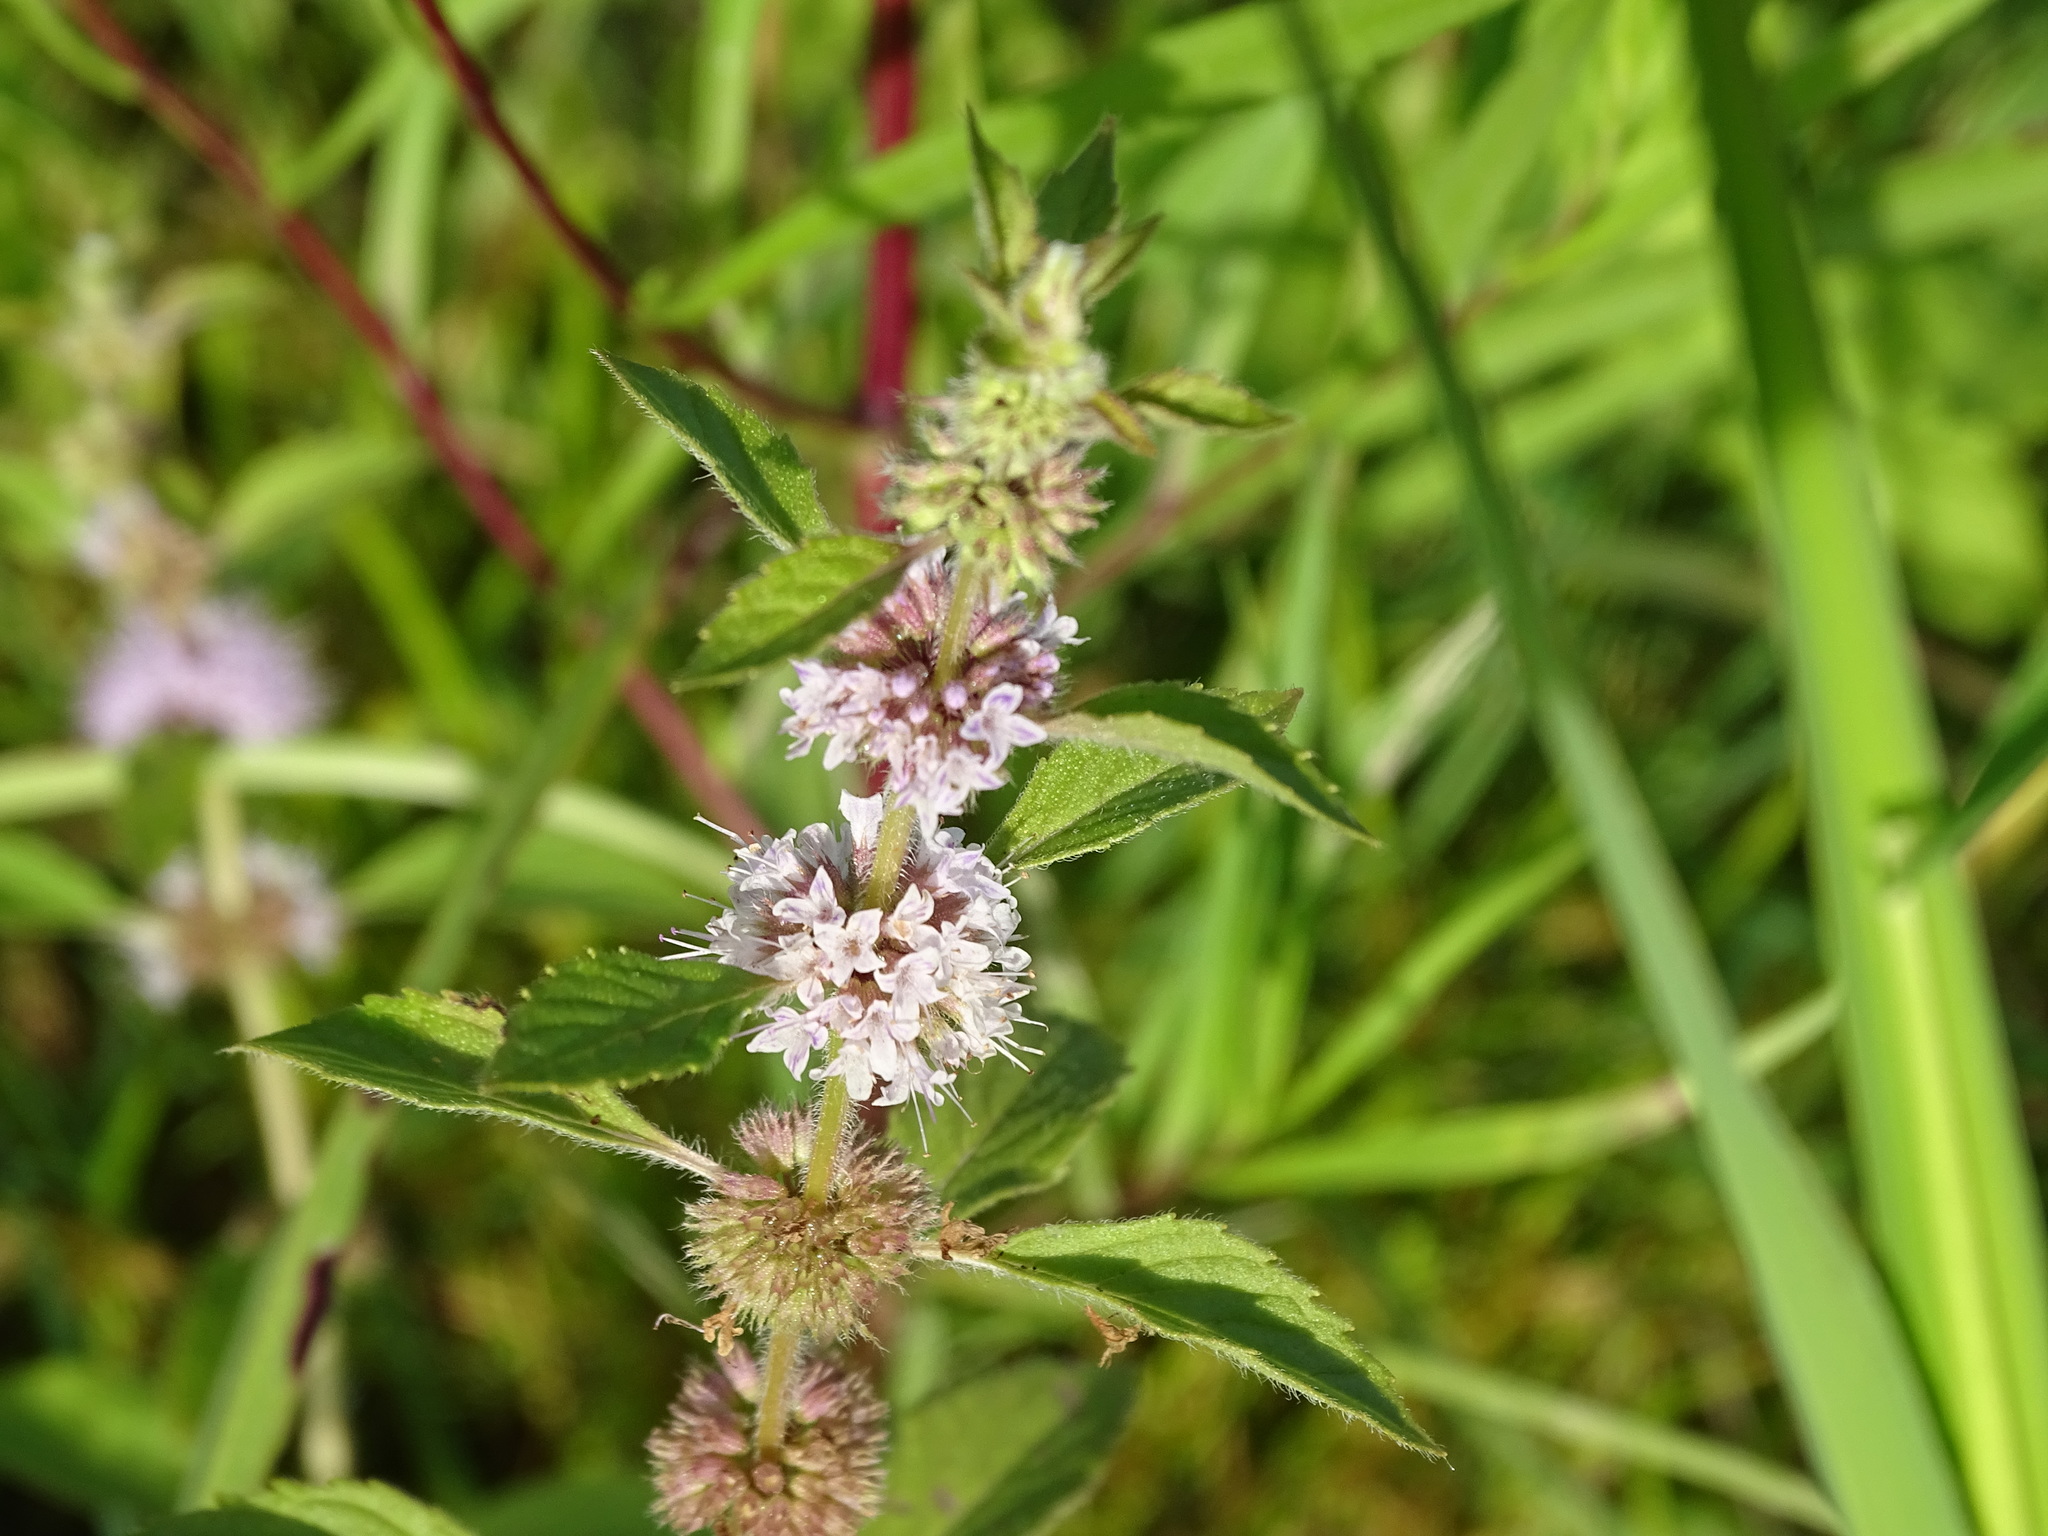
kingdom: Plantae
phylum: Tracheophyta
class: Magnoliopsida
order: Lamiales
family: Lamiaceae
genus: Mentha
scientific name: Mentha canadensis
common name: American corn mint
